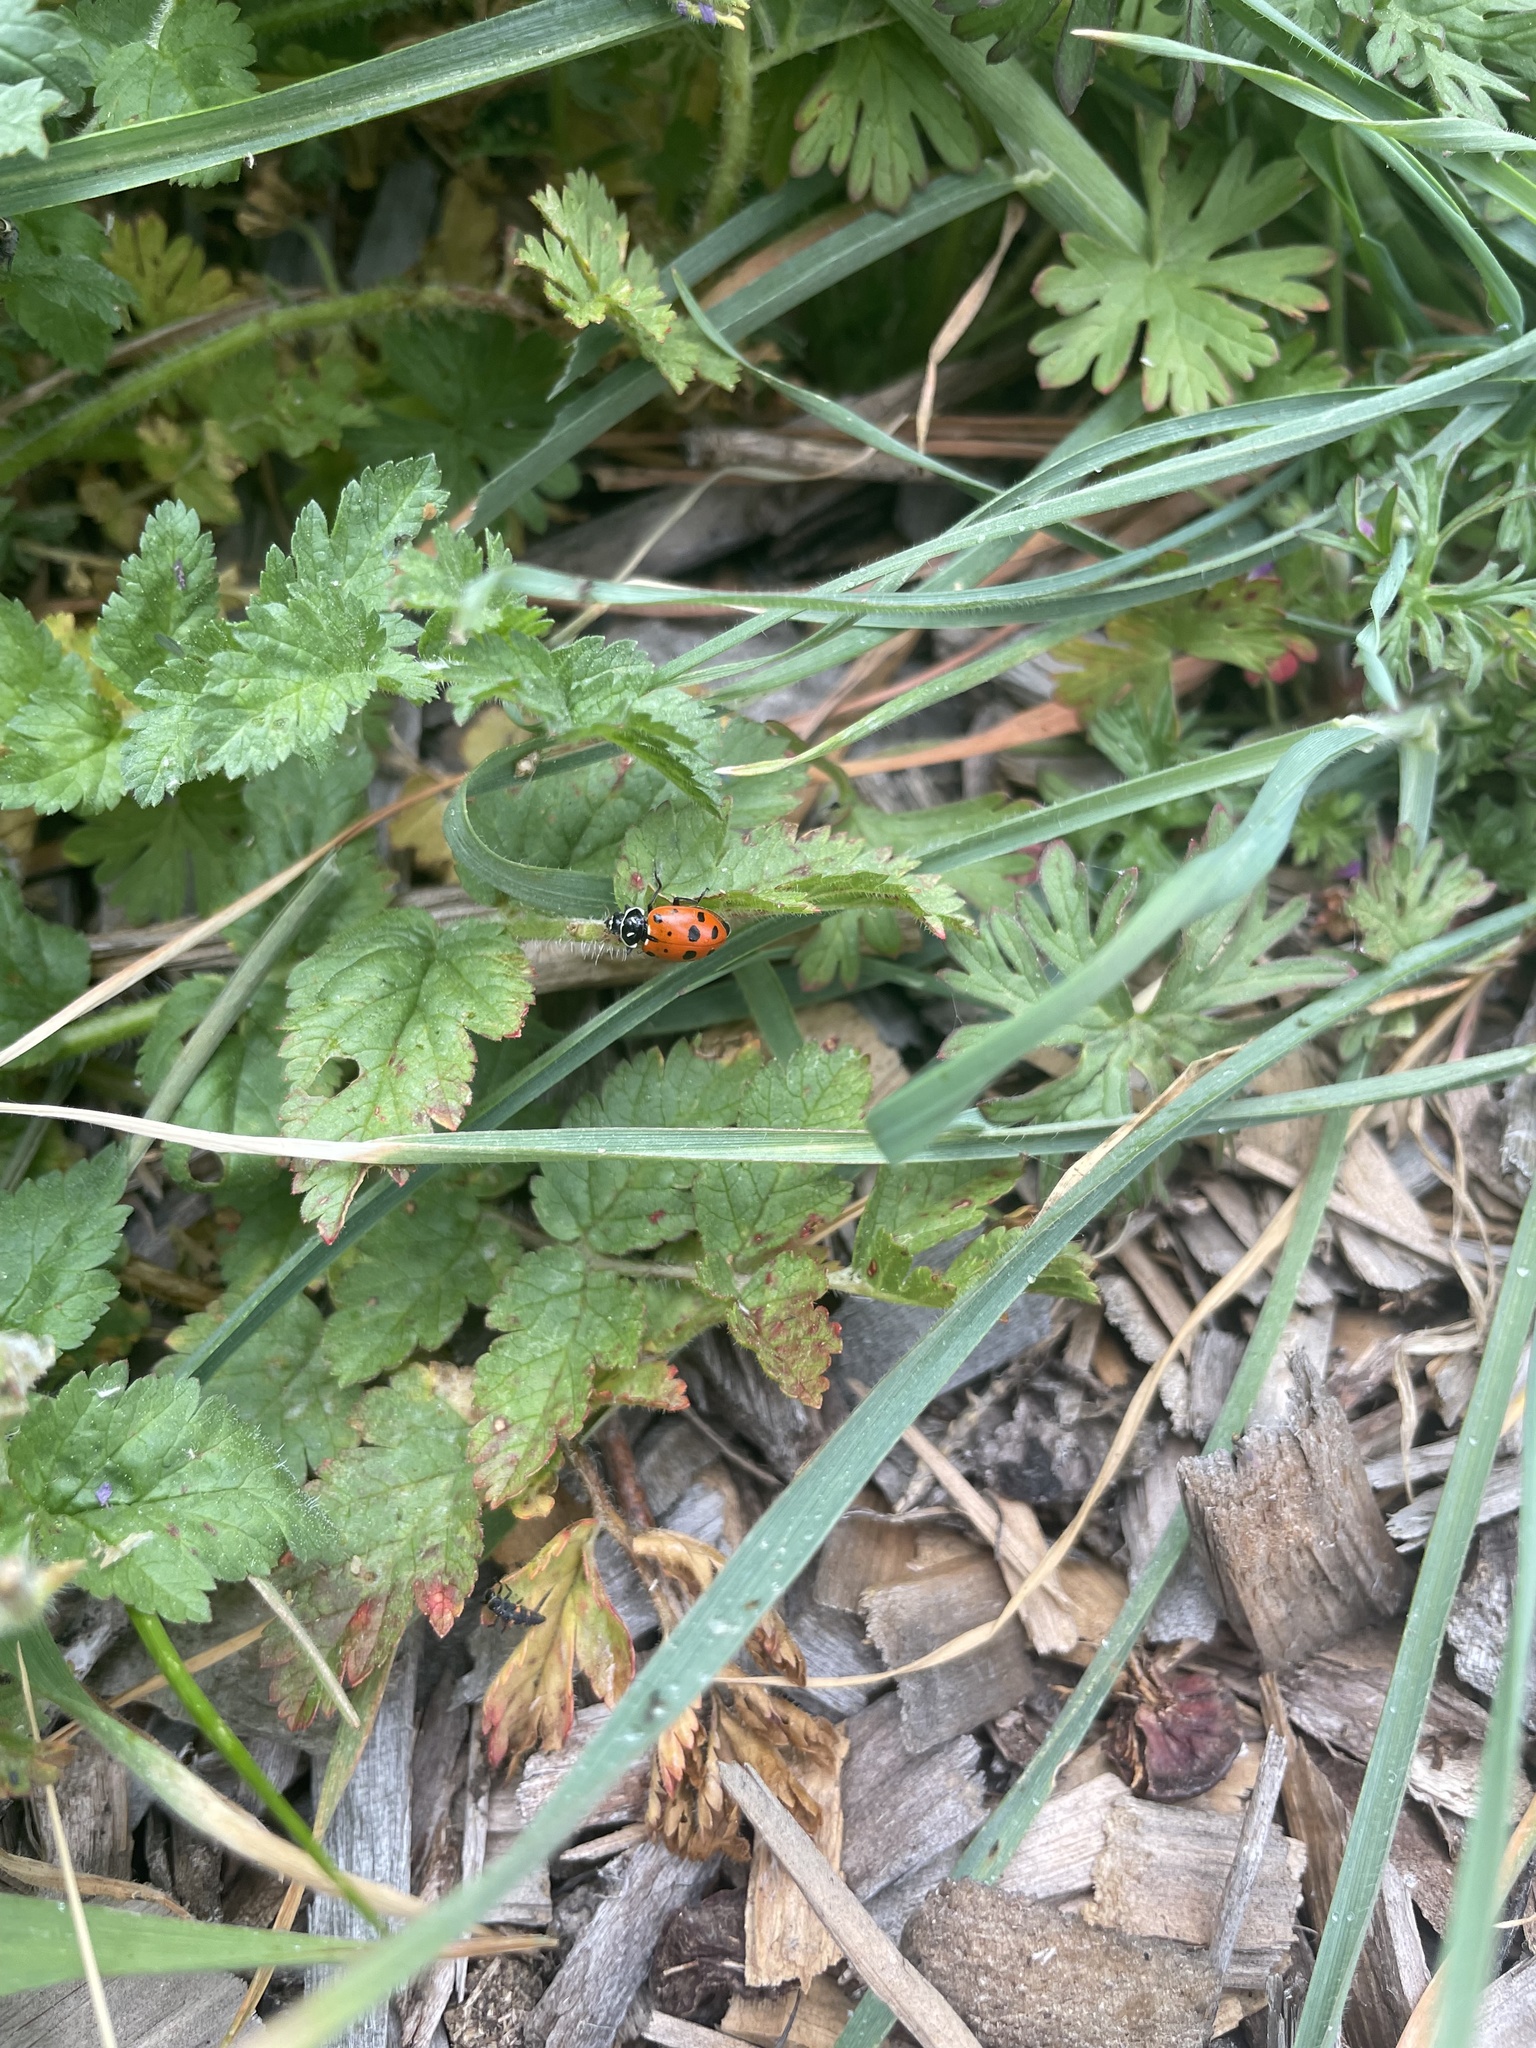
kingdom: Animalia
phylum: Arthropoda
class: Insecta
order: Coleoptera
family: Coccinellidae
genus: Hippodamia
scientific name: Hippodamia convergens
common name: Convergent lady beetle
